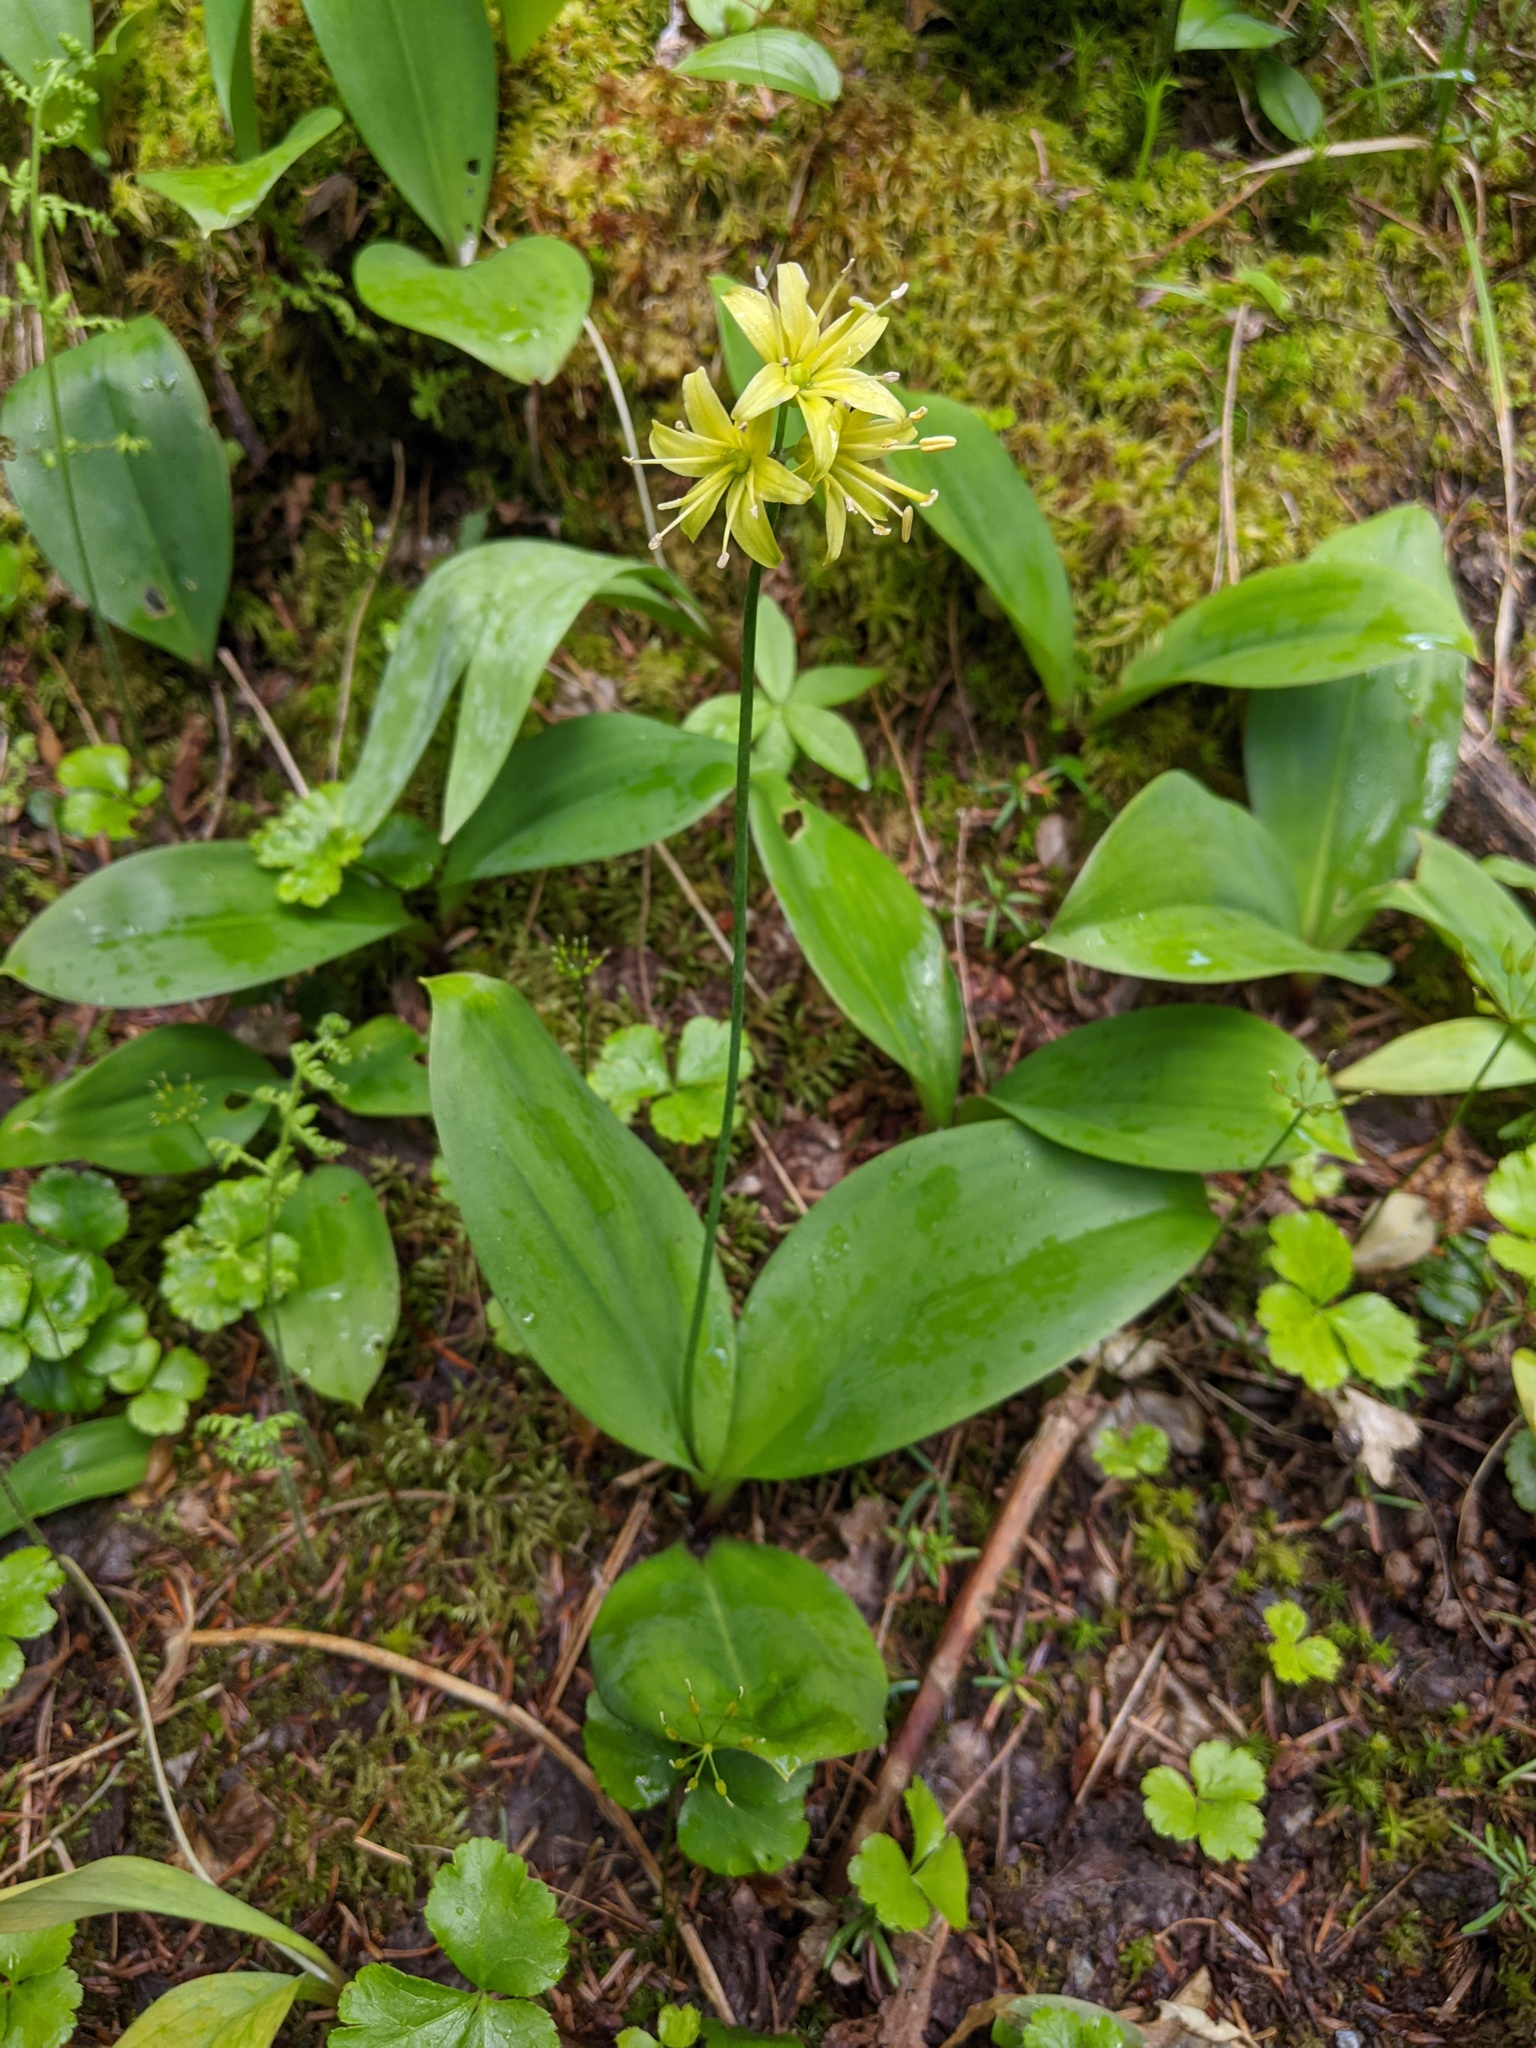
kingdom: Plantae
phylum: Tracheophyta
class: Liliopsida
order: Liliales
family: Liliaceae
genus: Clintonia
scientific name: Clintonia borealis
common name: Yellow clintonia
